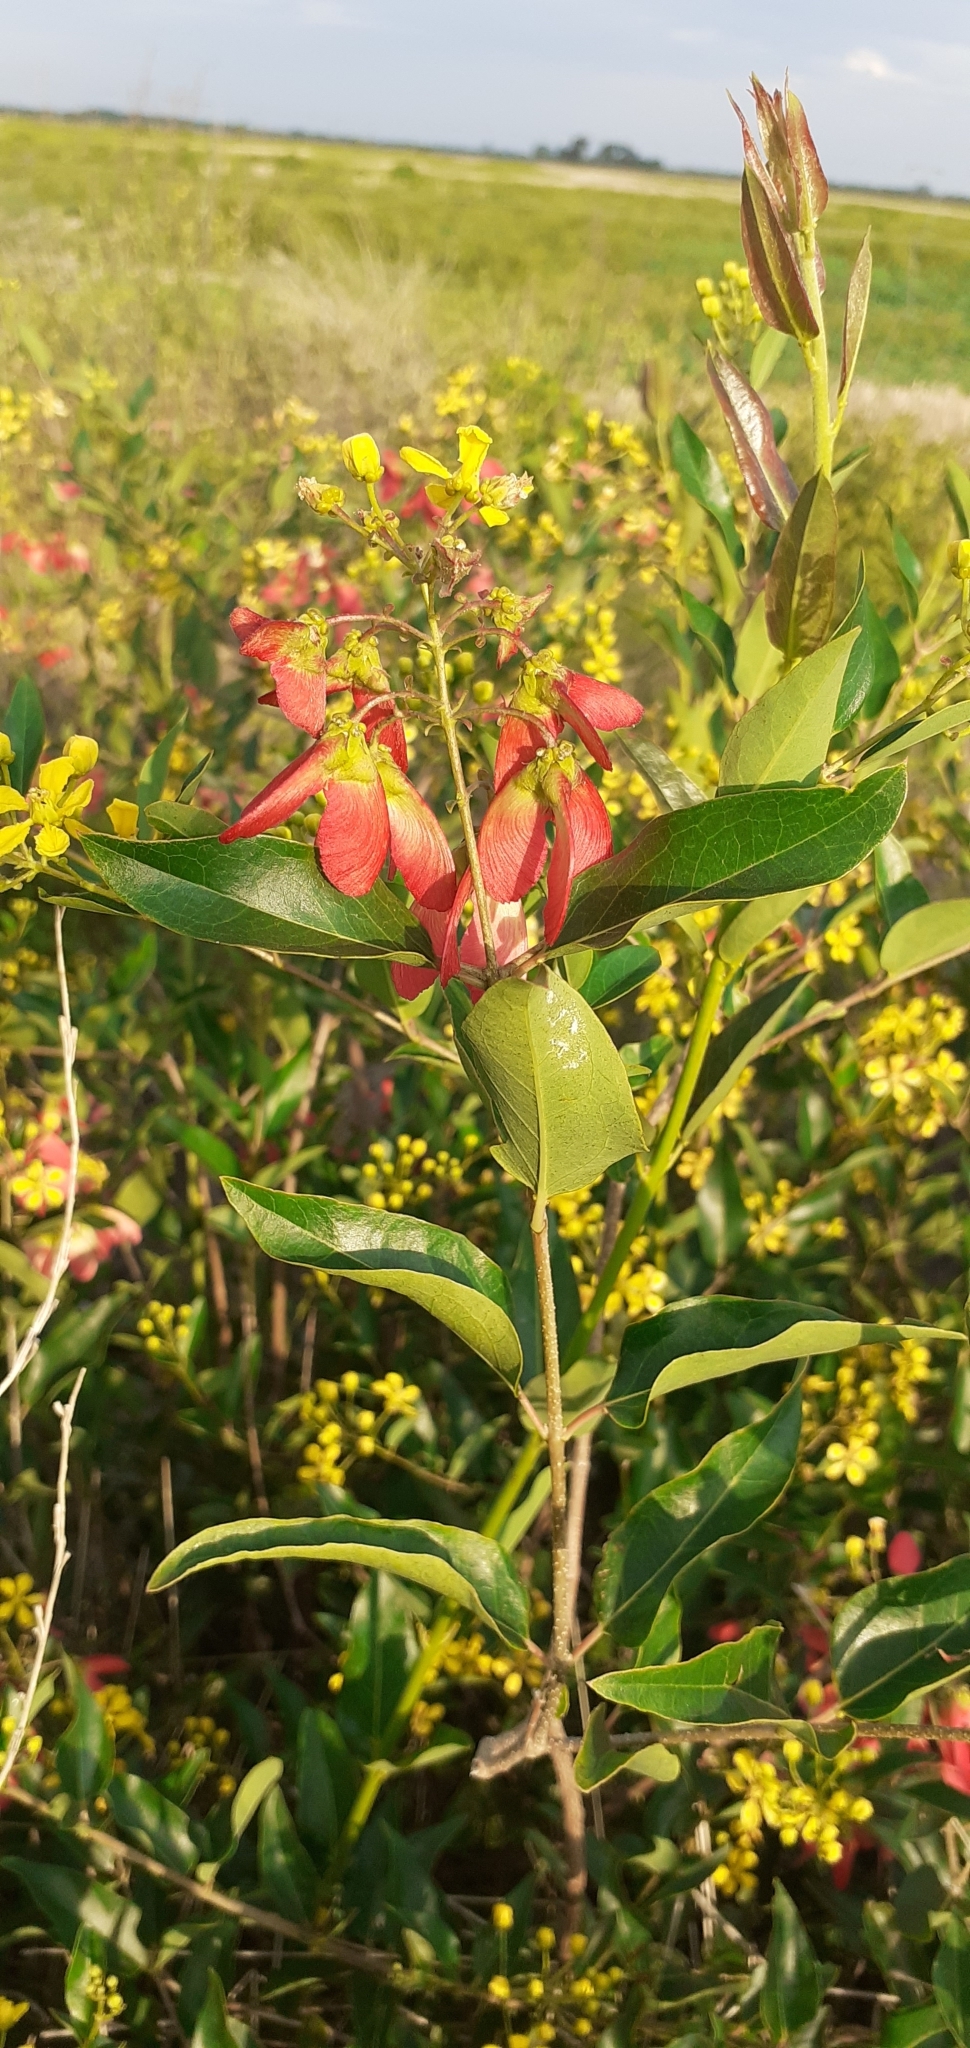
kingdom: Plantae
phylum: Tracheophyta
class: Magnoliopsida
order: Malpighiales
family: Malpighiaceae
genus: Heteropterys
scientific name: Heteropterys glabra
